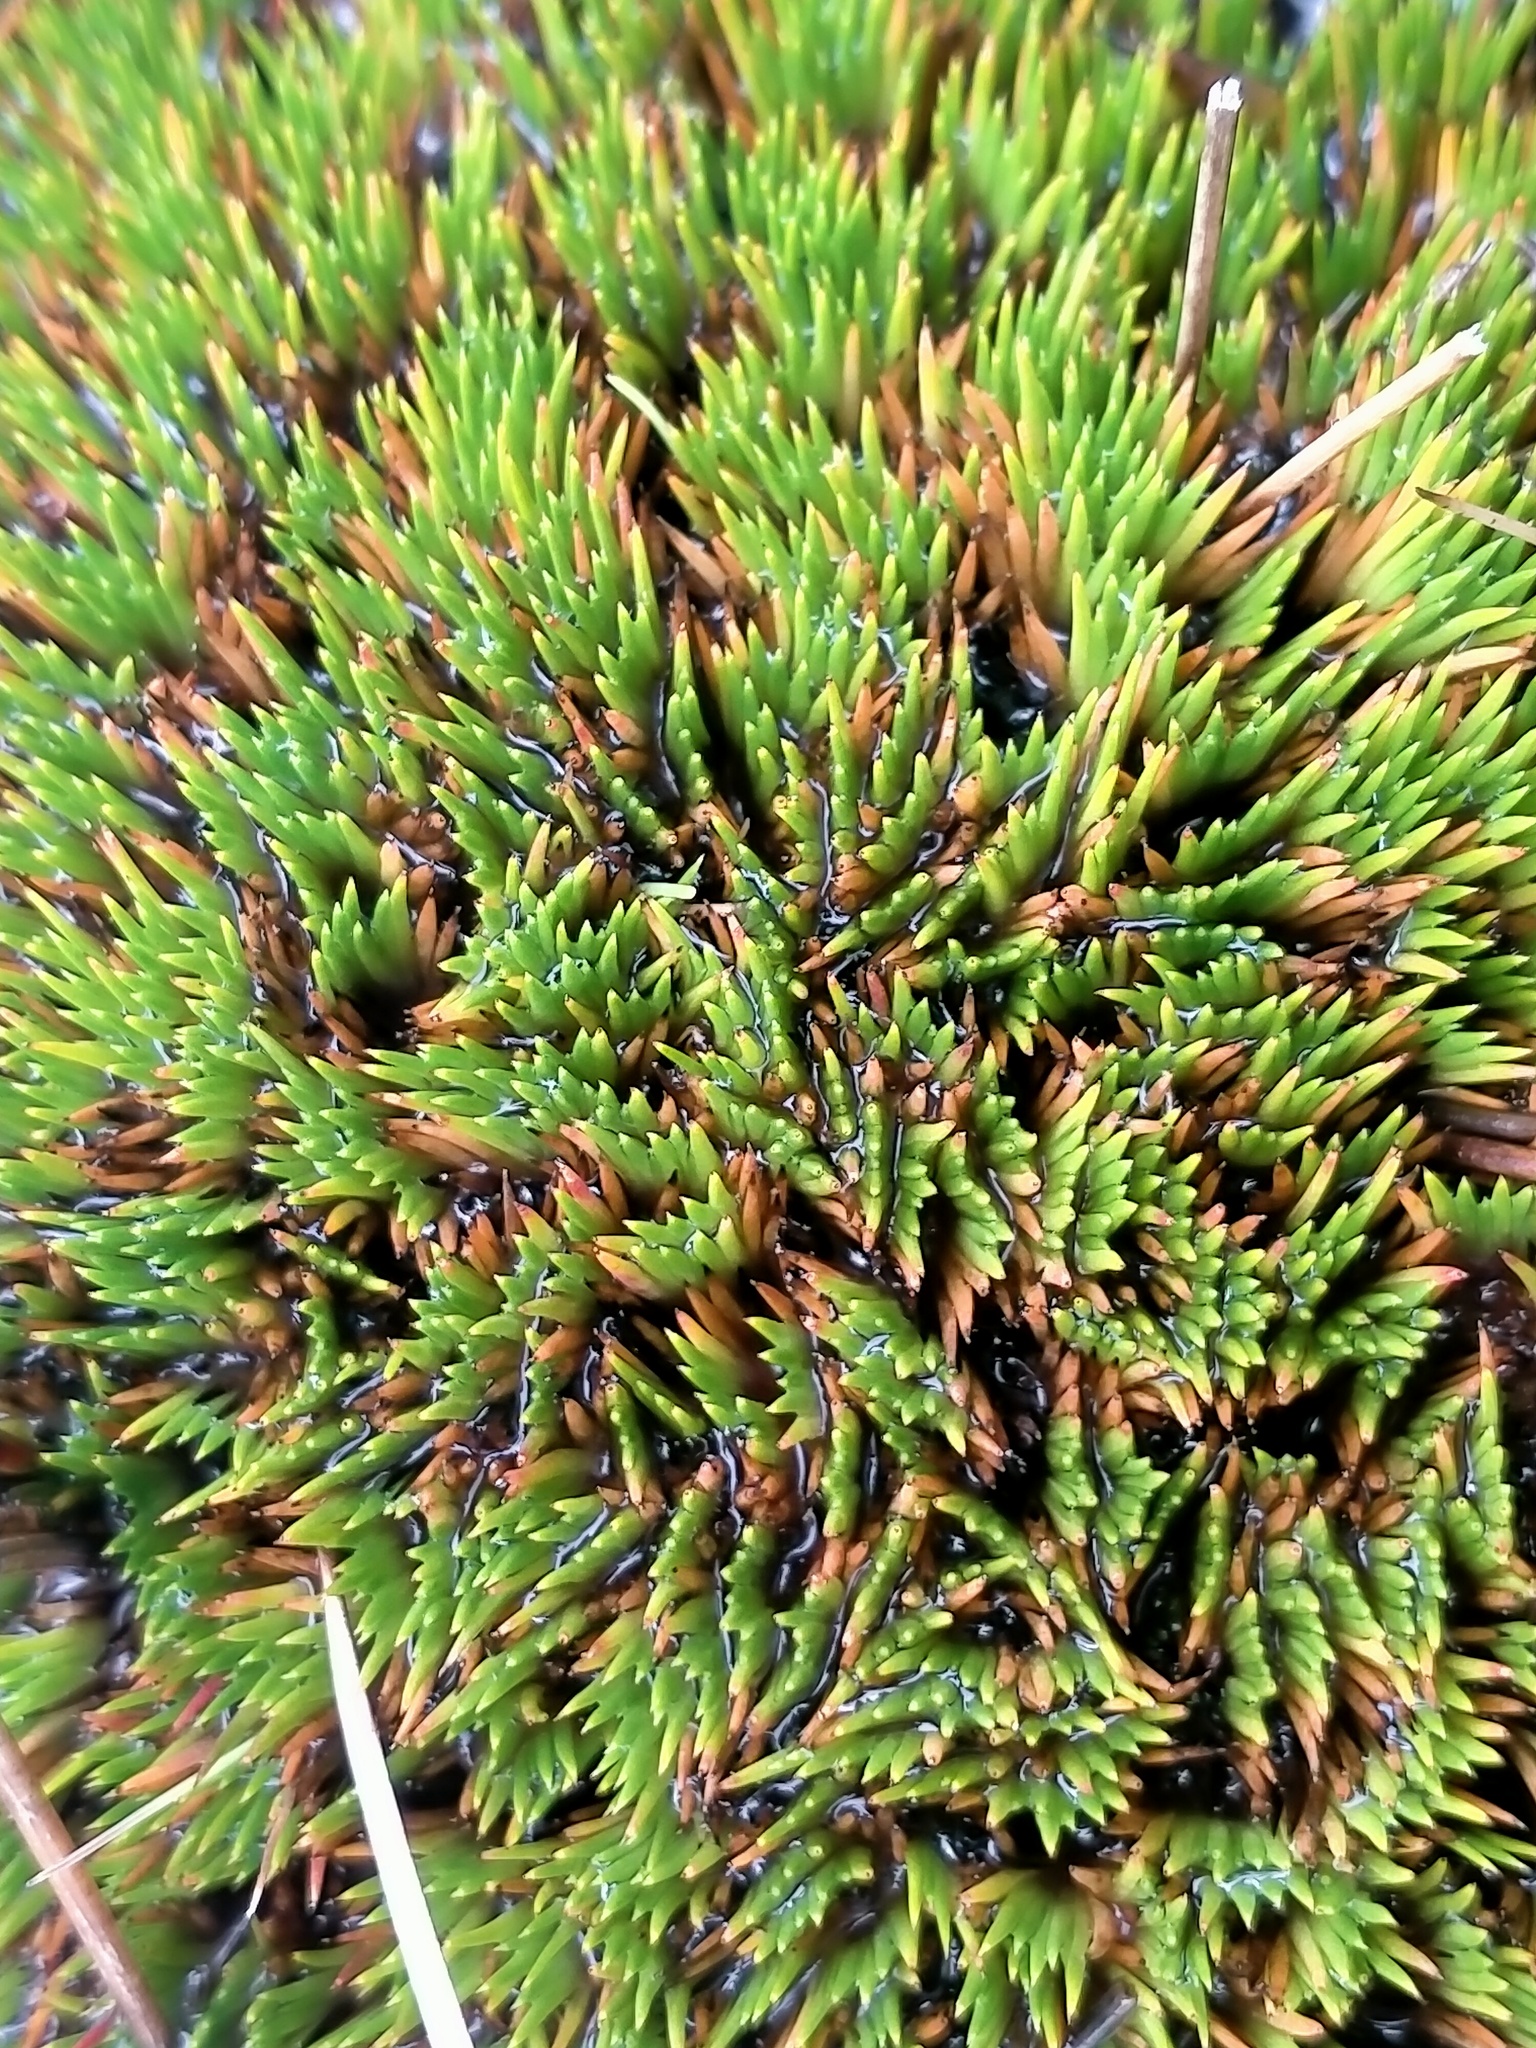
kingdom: Plantae
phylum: Tracheophyta
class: Liliopsida
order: Poales
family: Cyperaceae
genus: Oreobolus
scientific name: Oreobolus pectinatus
